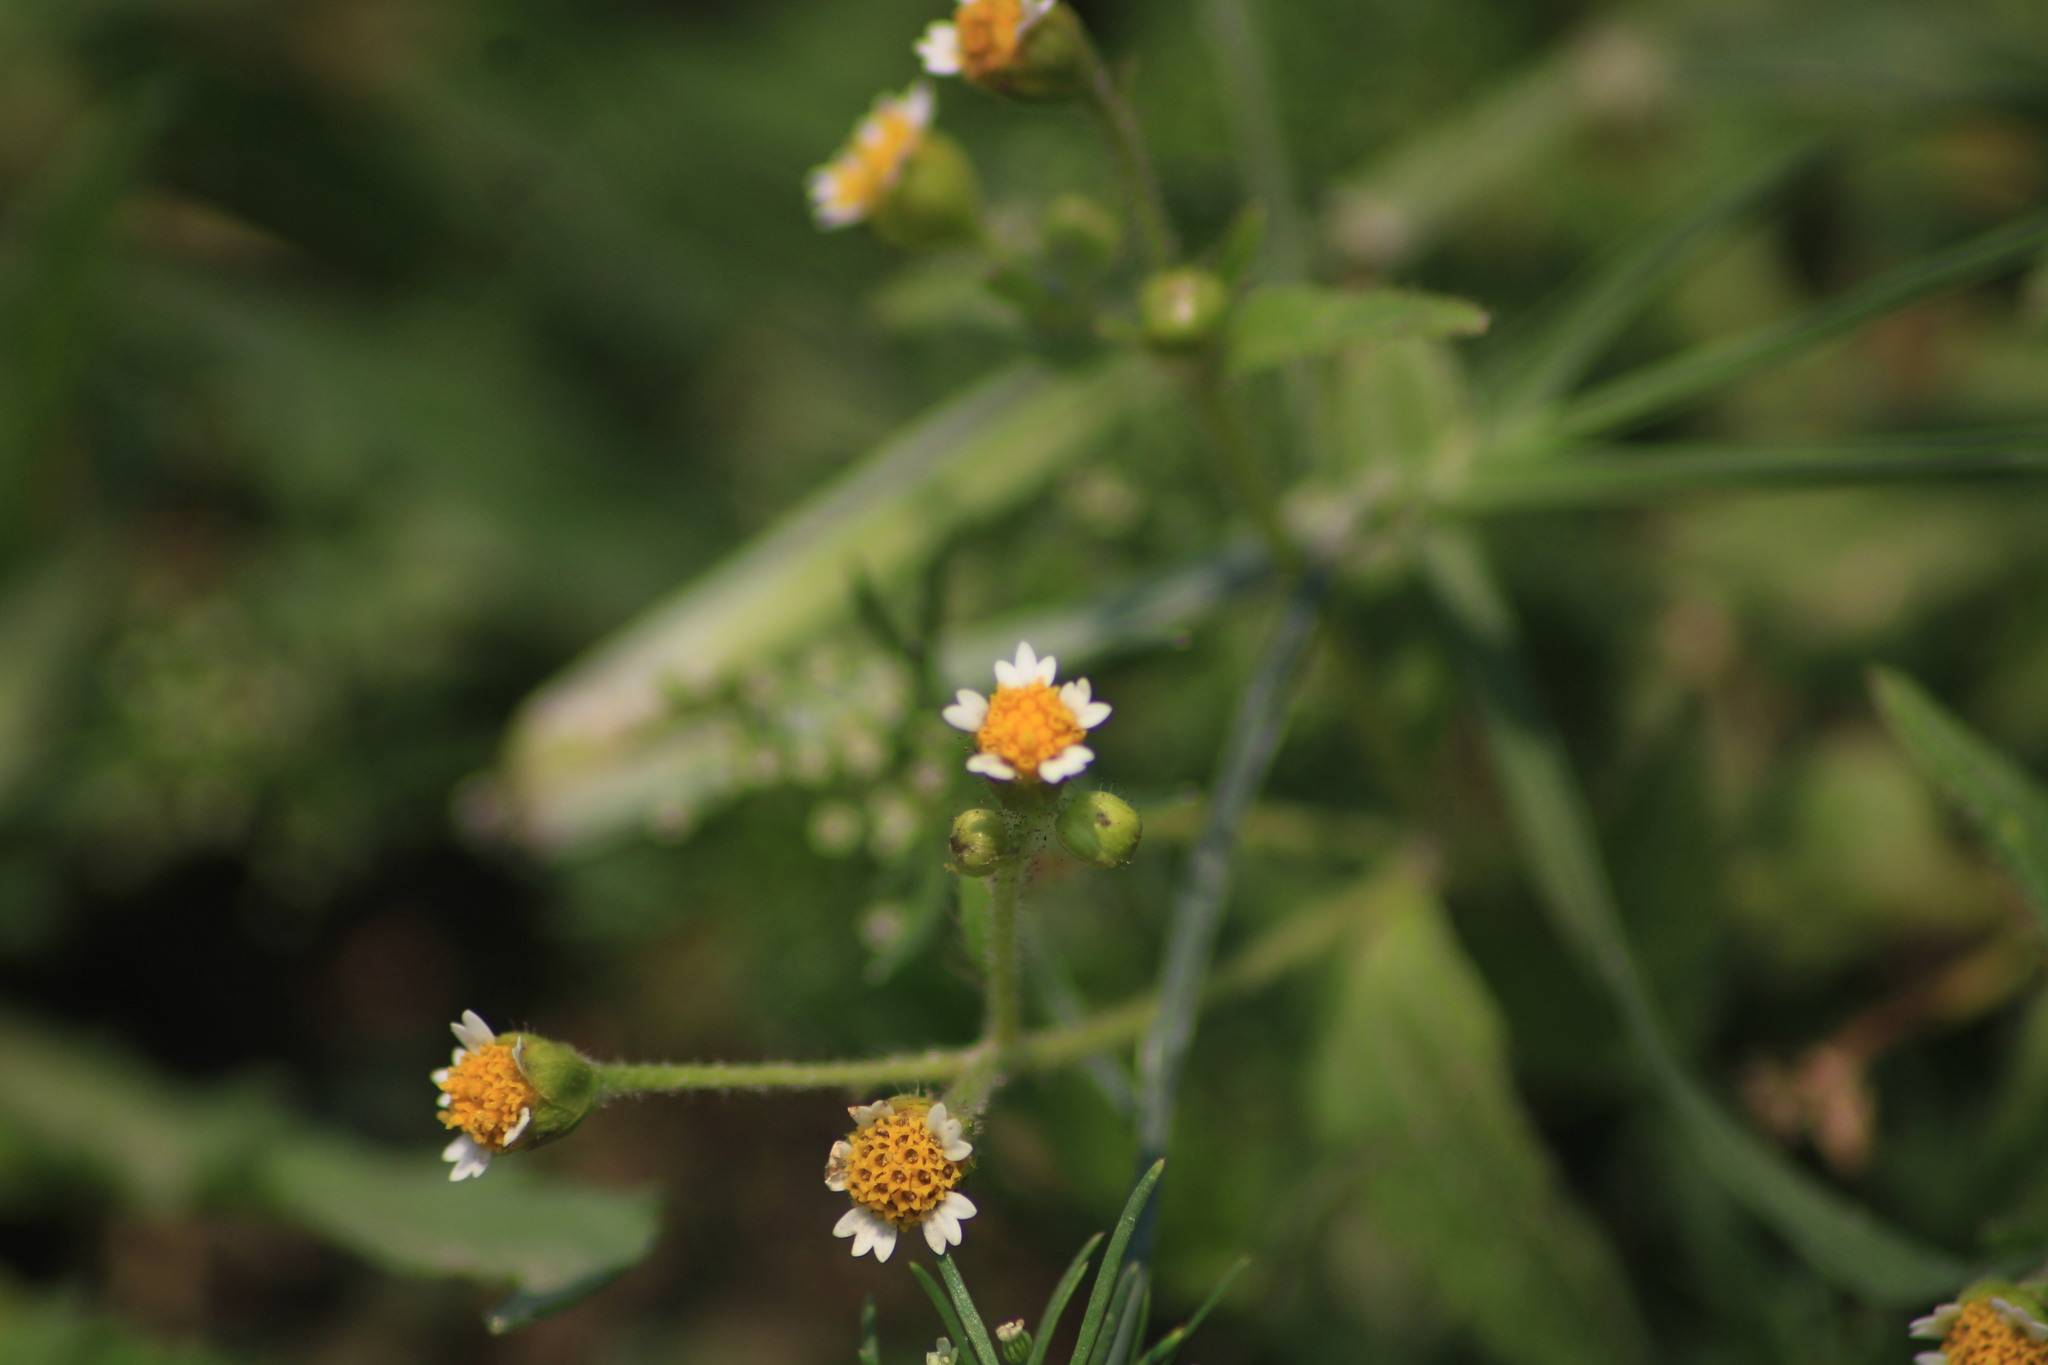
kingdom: Plantae
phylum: Tracheophyta
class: Magnoliopsida
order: Asterales
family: Asteraceae
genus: Galinsoga
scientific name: Galinsoga parviflora
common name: Gallant soldier
